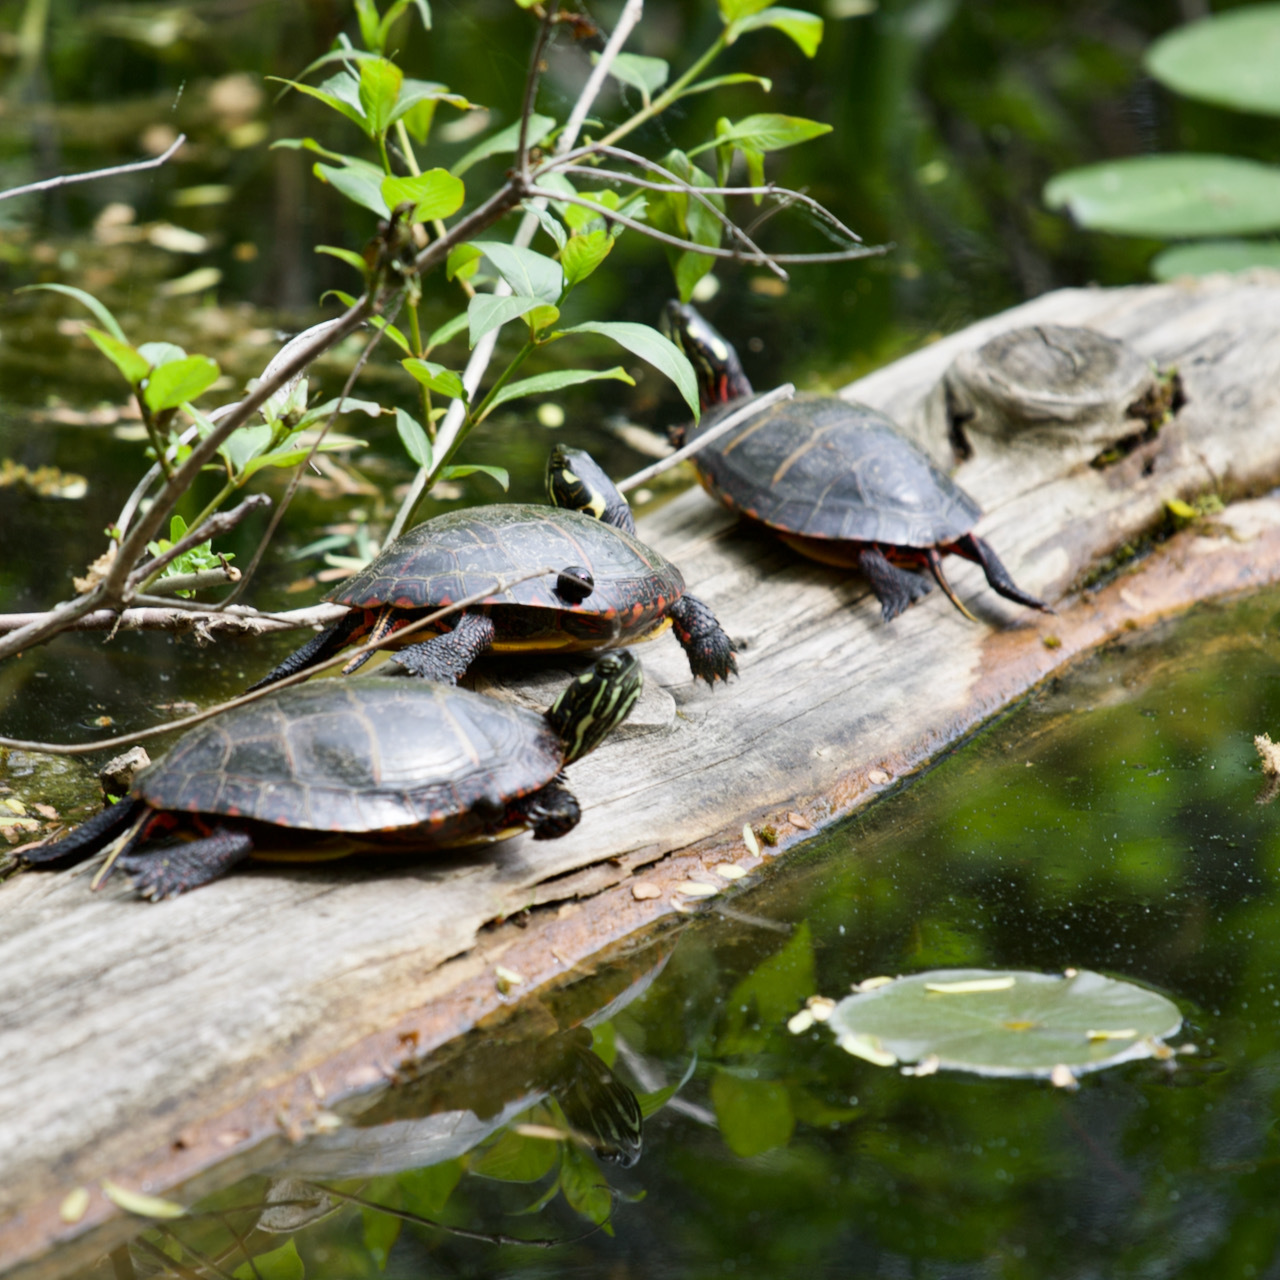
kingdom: Animalia
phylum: Chordata
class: Testudines
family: Emydidae
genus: Chrysemys
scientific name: Chrysemys picta
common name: Painted turtle
